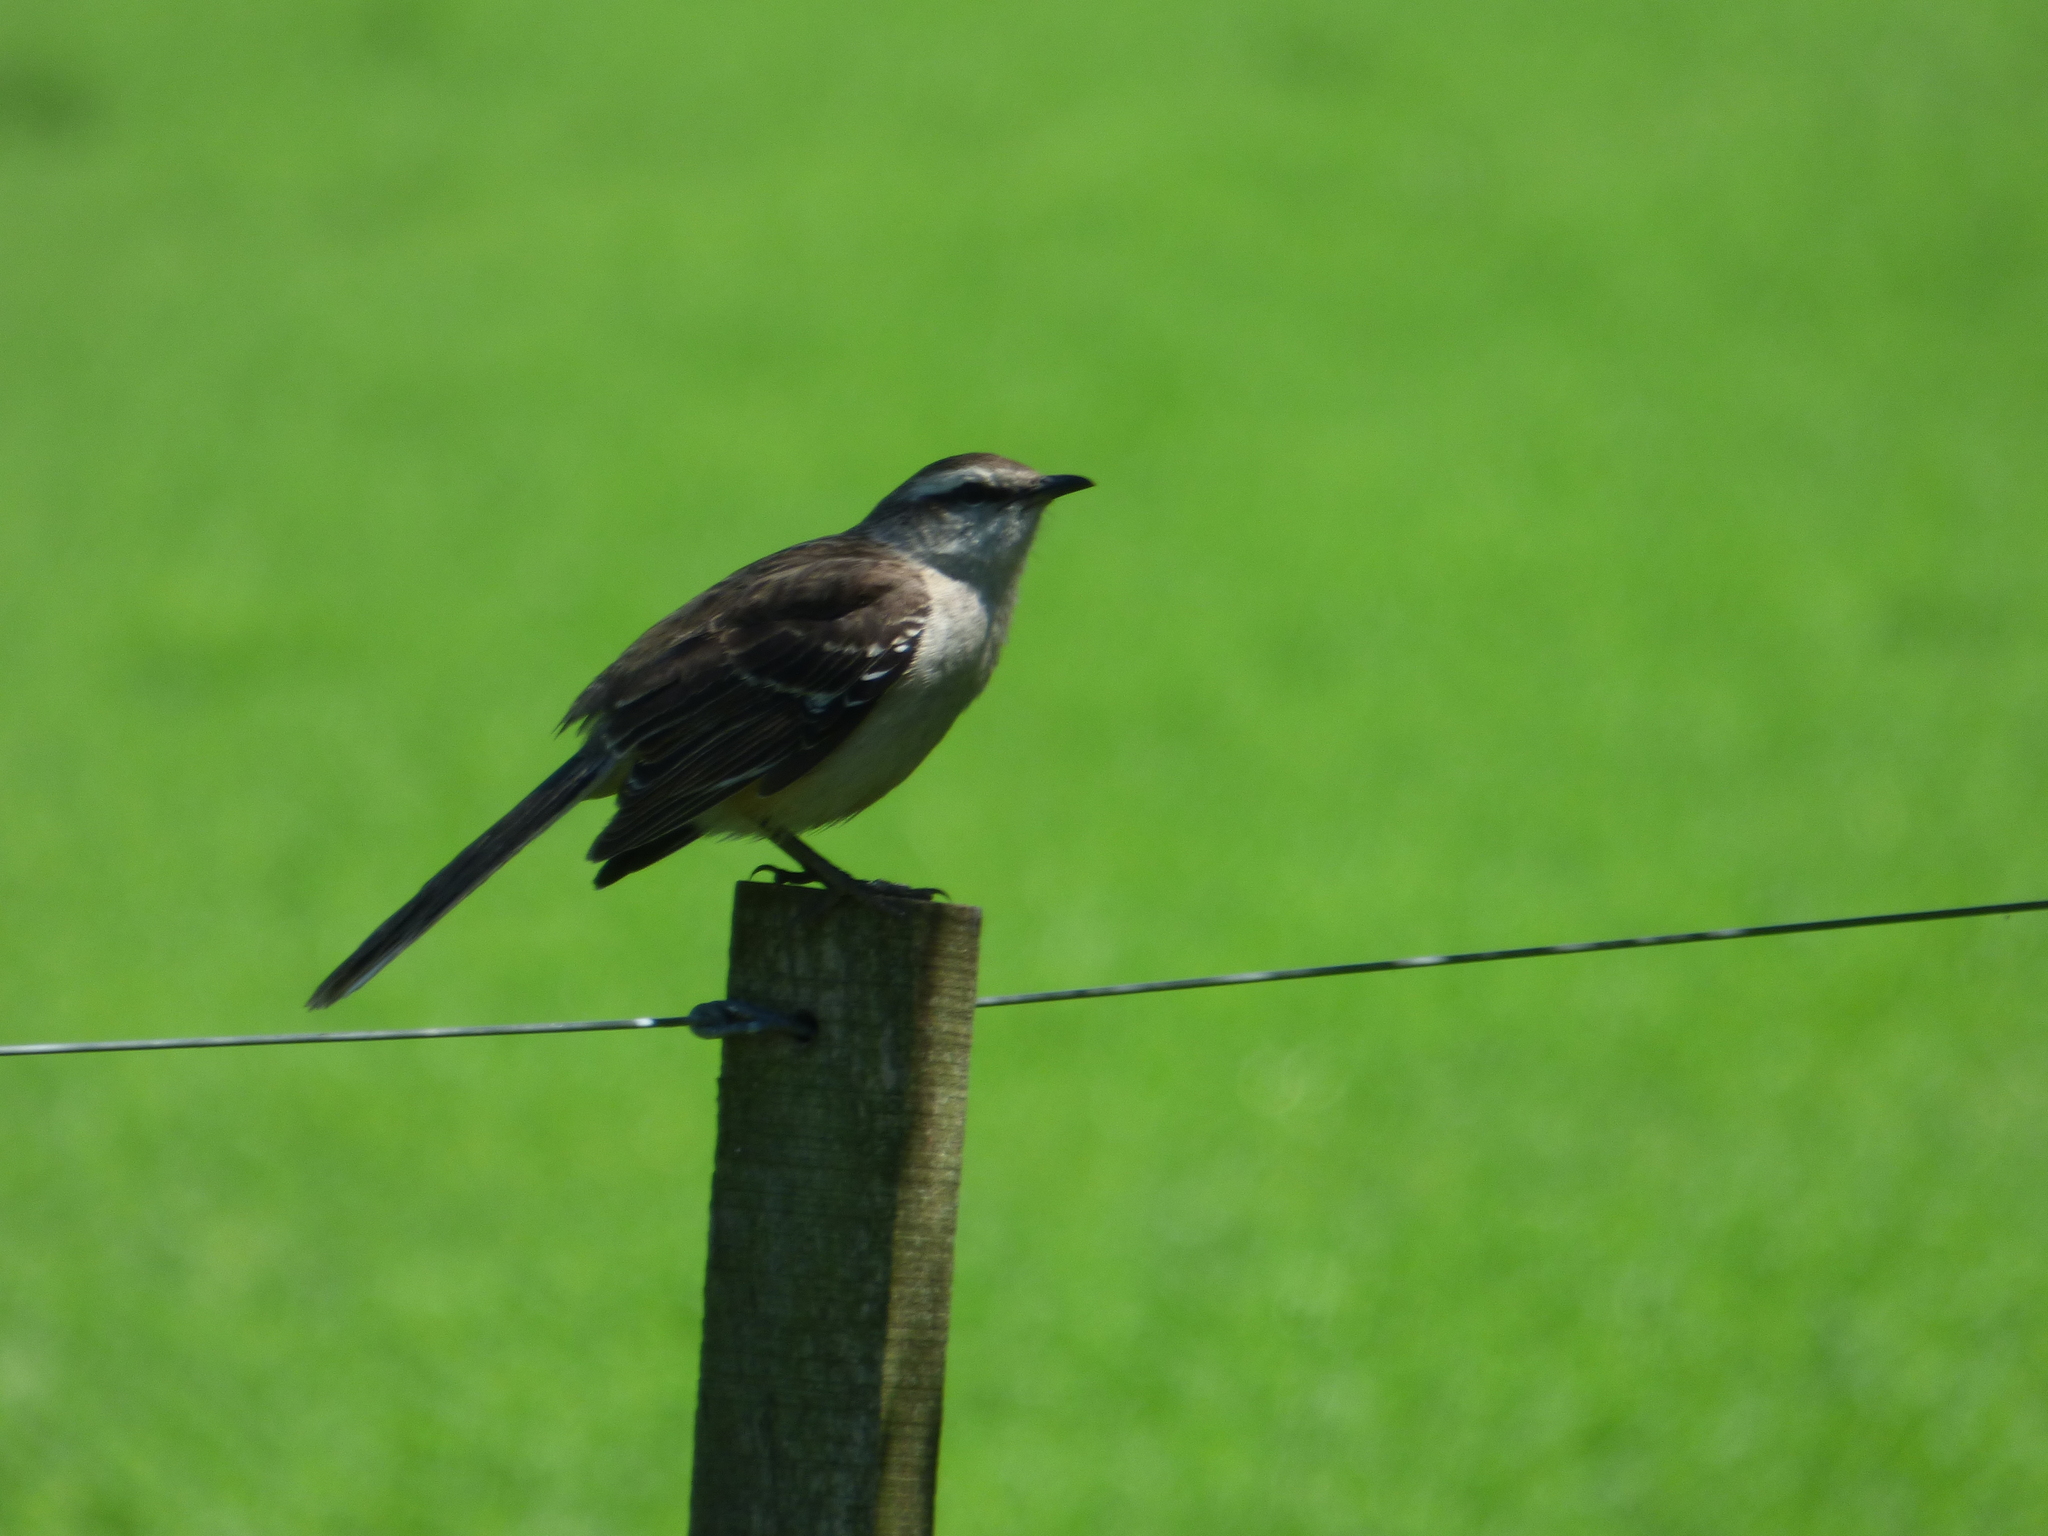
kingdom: Animalia
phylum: Chordata
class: Aves
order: Passeriformes
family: Mimidae
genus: Mimus
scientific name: Mimus saturninus
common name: Chalk-browed mockingbird
